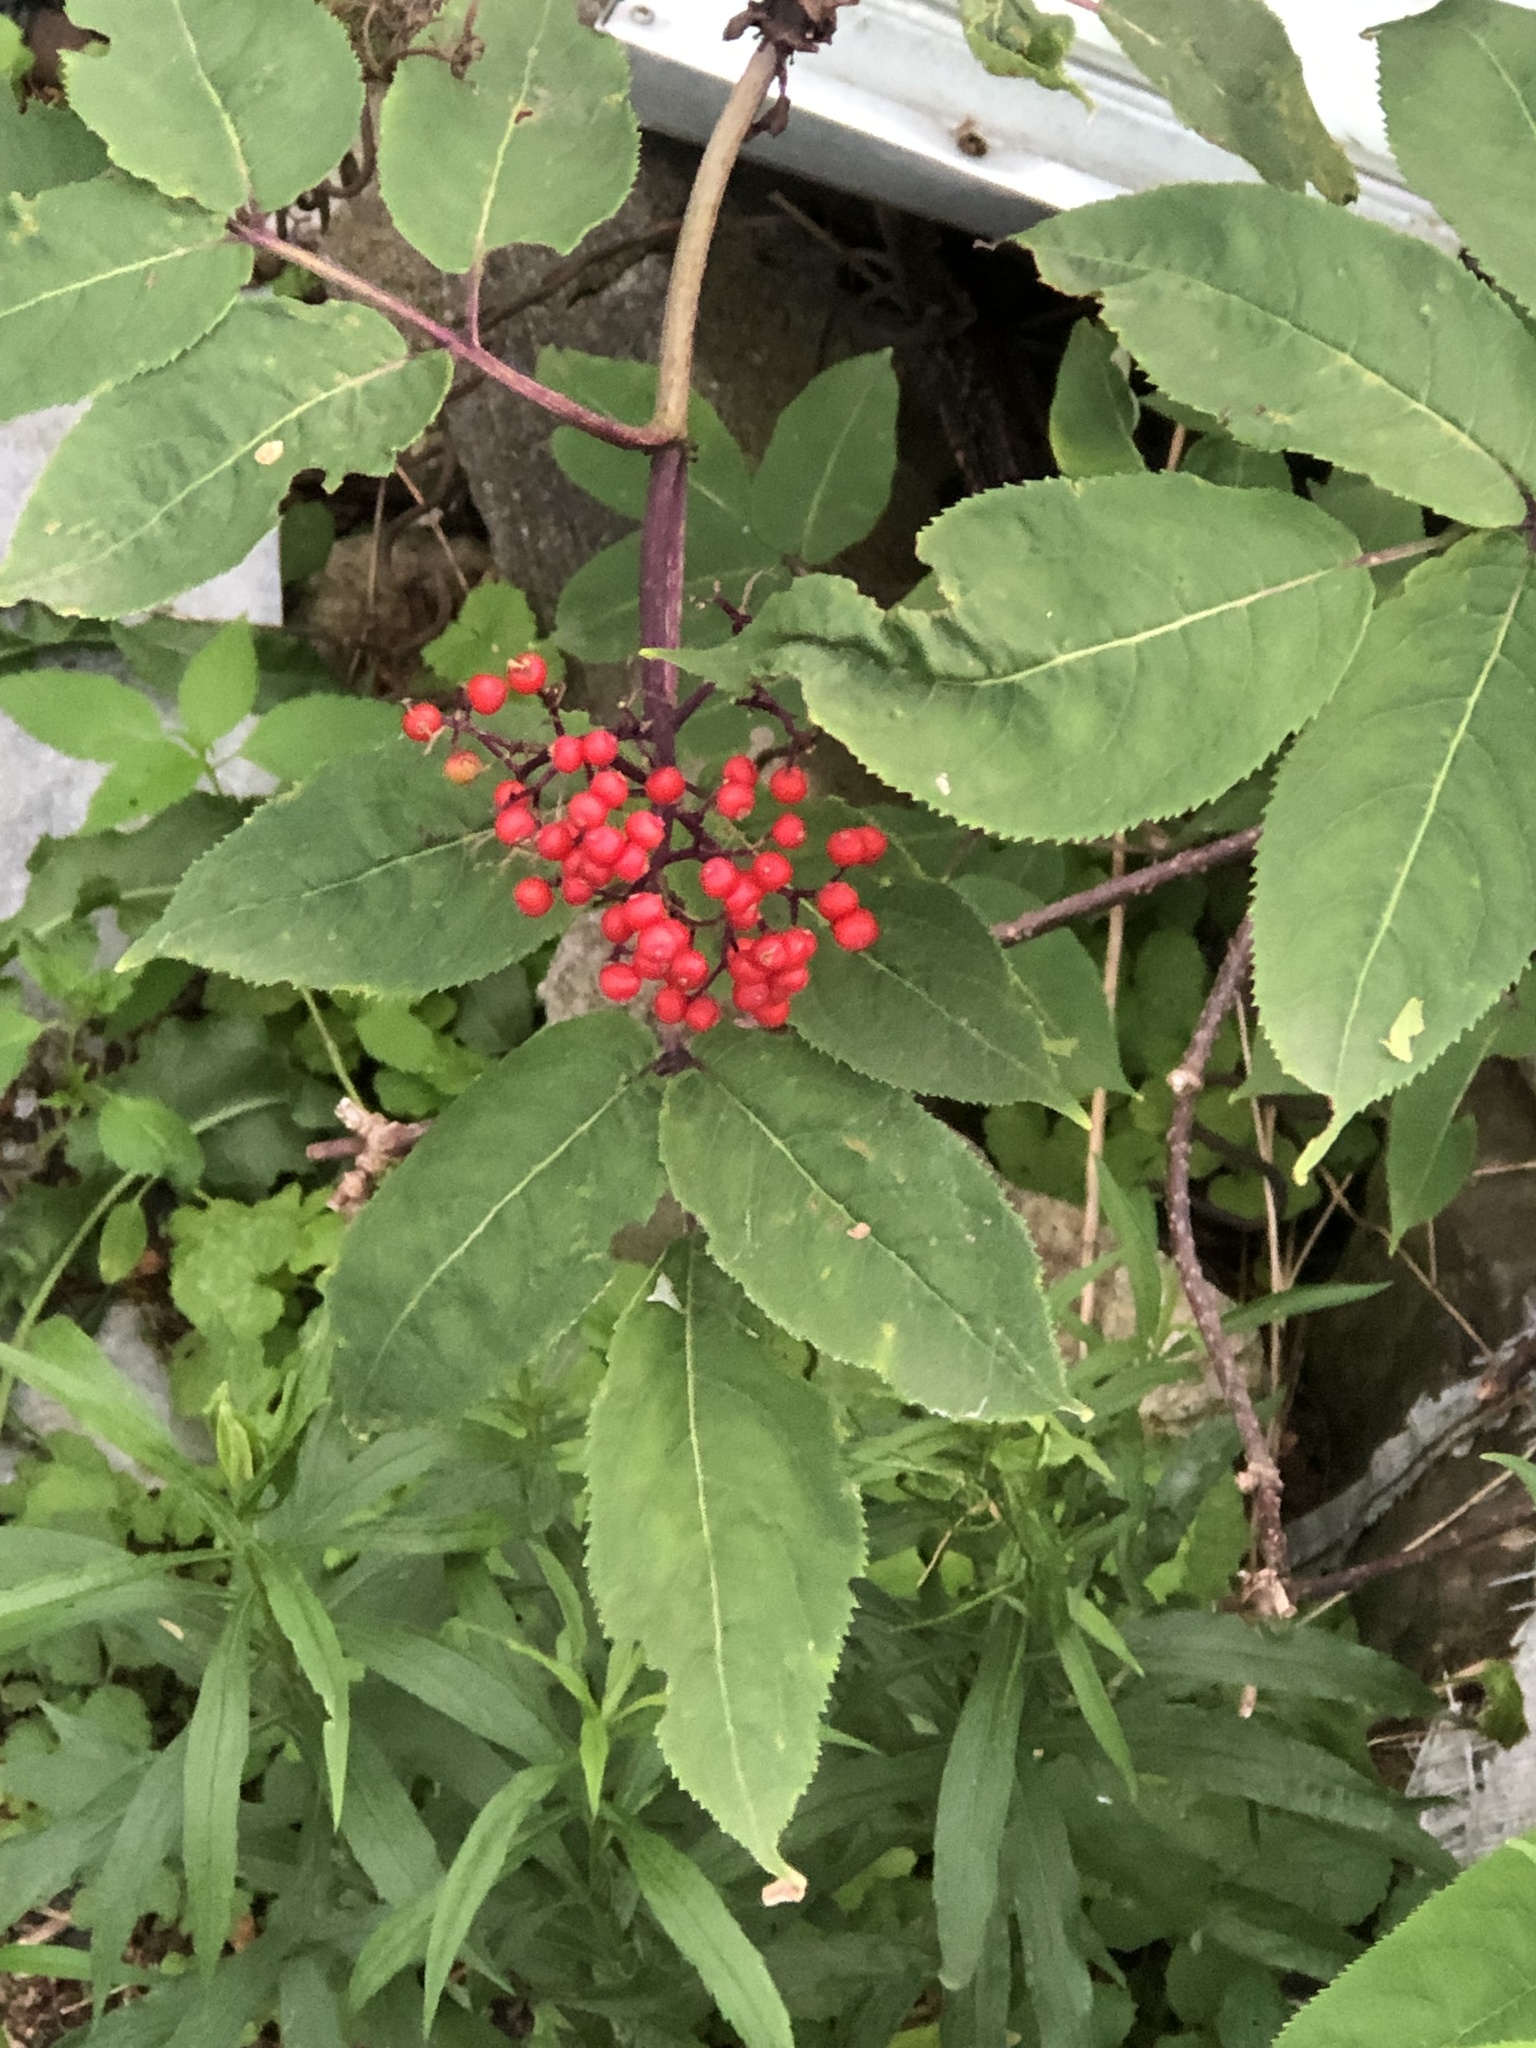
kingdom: Plantae
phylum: Tracheophyta
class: Magnoliopsida
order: Dipsacales
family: Viburnaceae
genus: Sambucus
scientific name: Sambucus racemosa
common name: Red-berried elder
